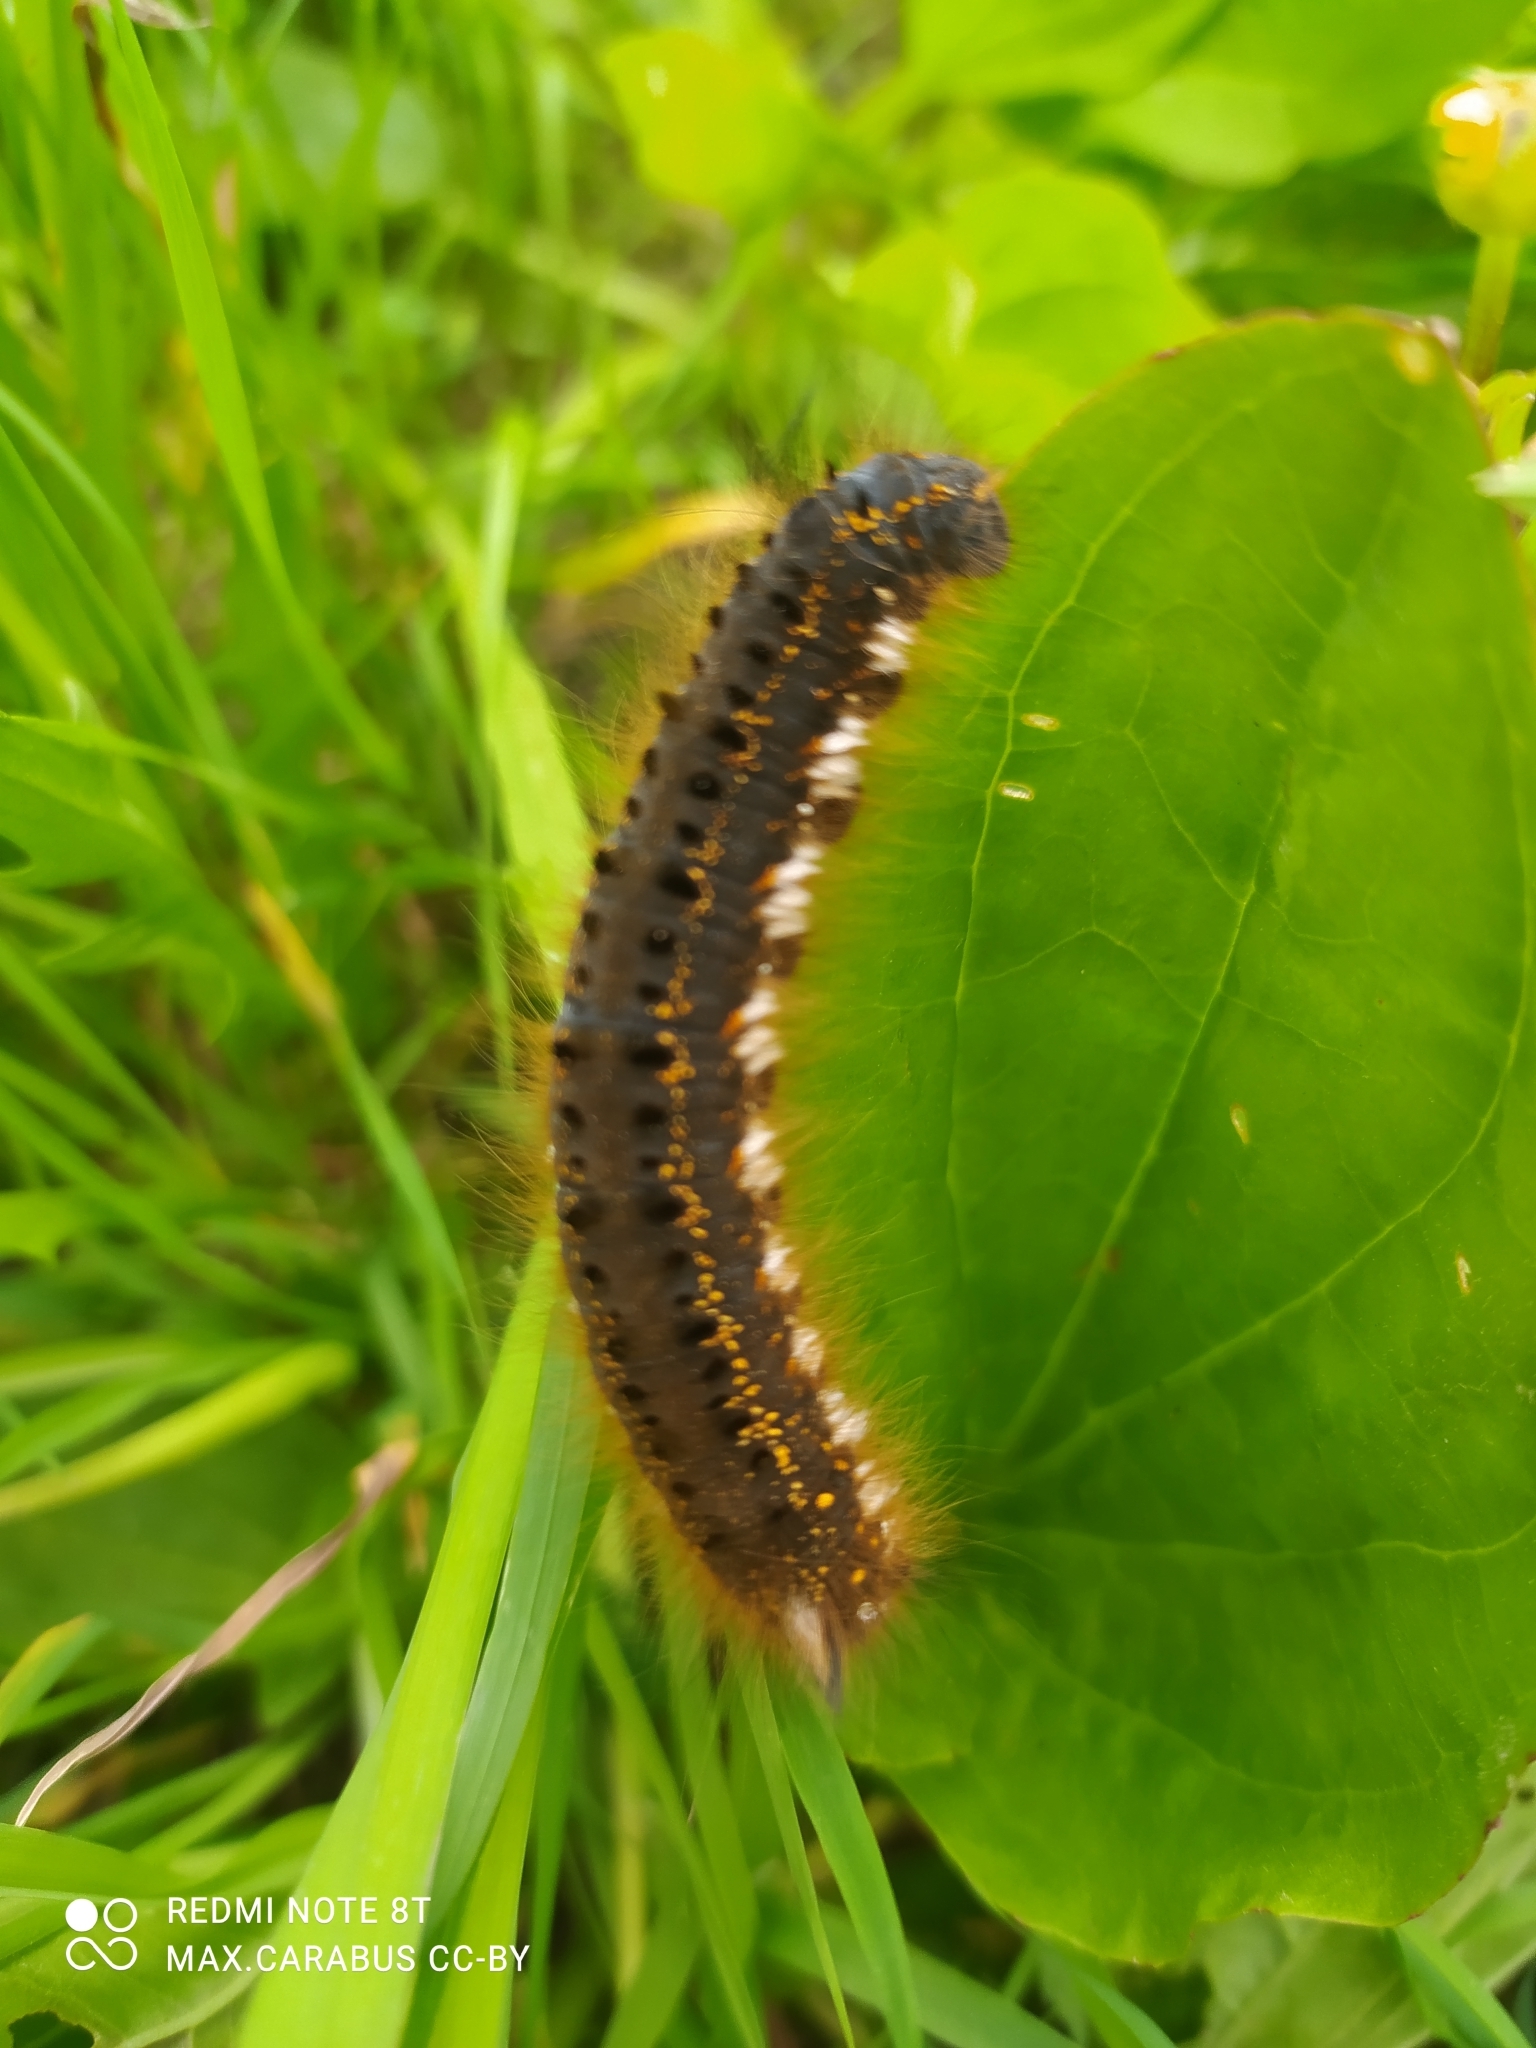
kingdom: Animalia
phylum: Arthropoda
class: Insecta
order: Lepidoptera
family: Lasiocampidae
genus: Euthrix
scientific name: Euthrix potatoria
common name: Drinker
